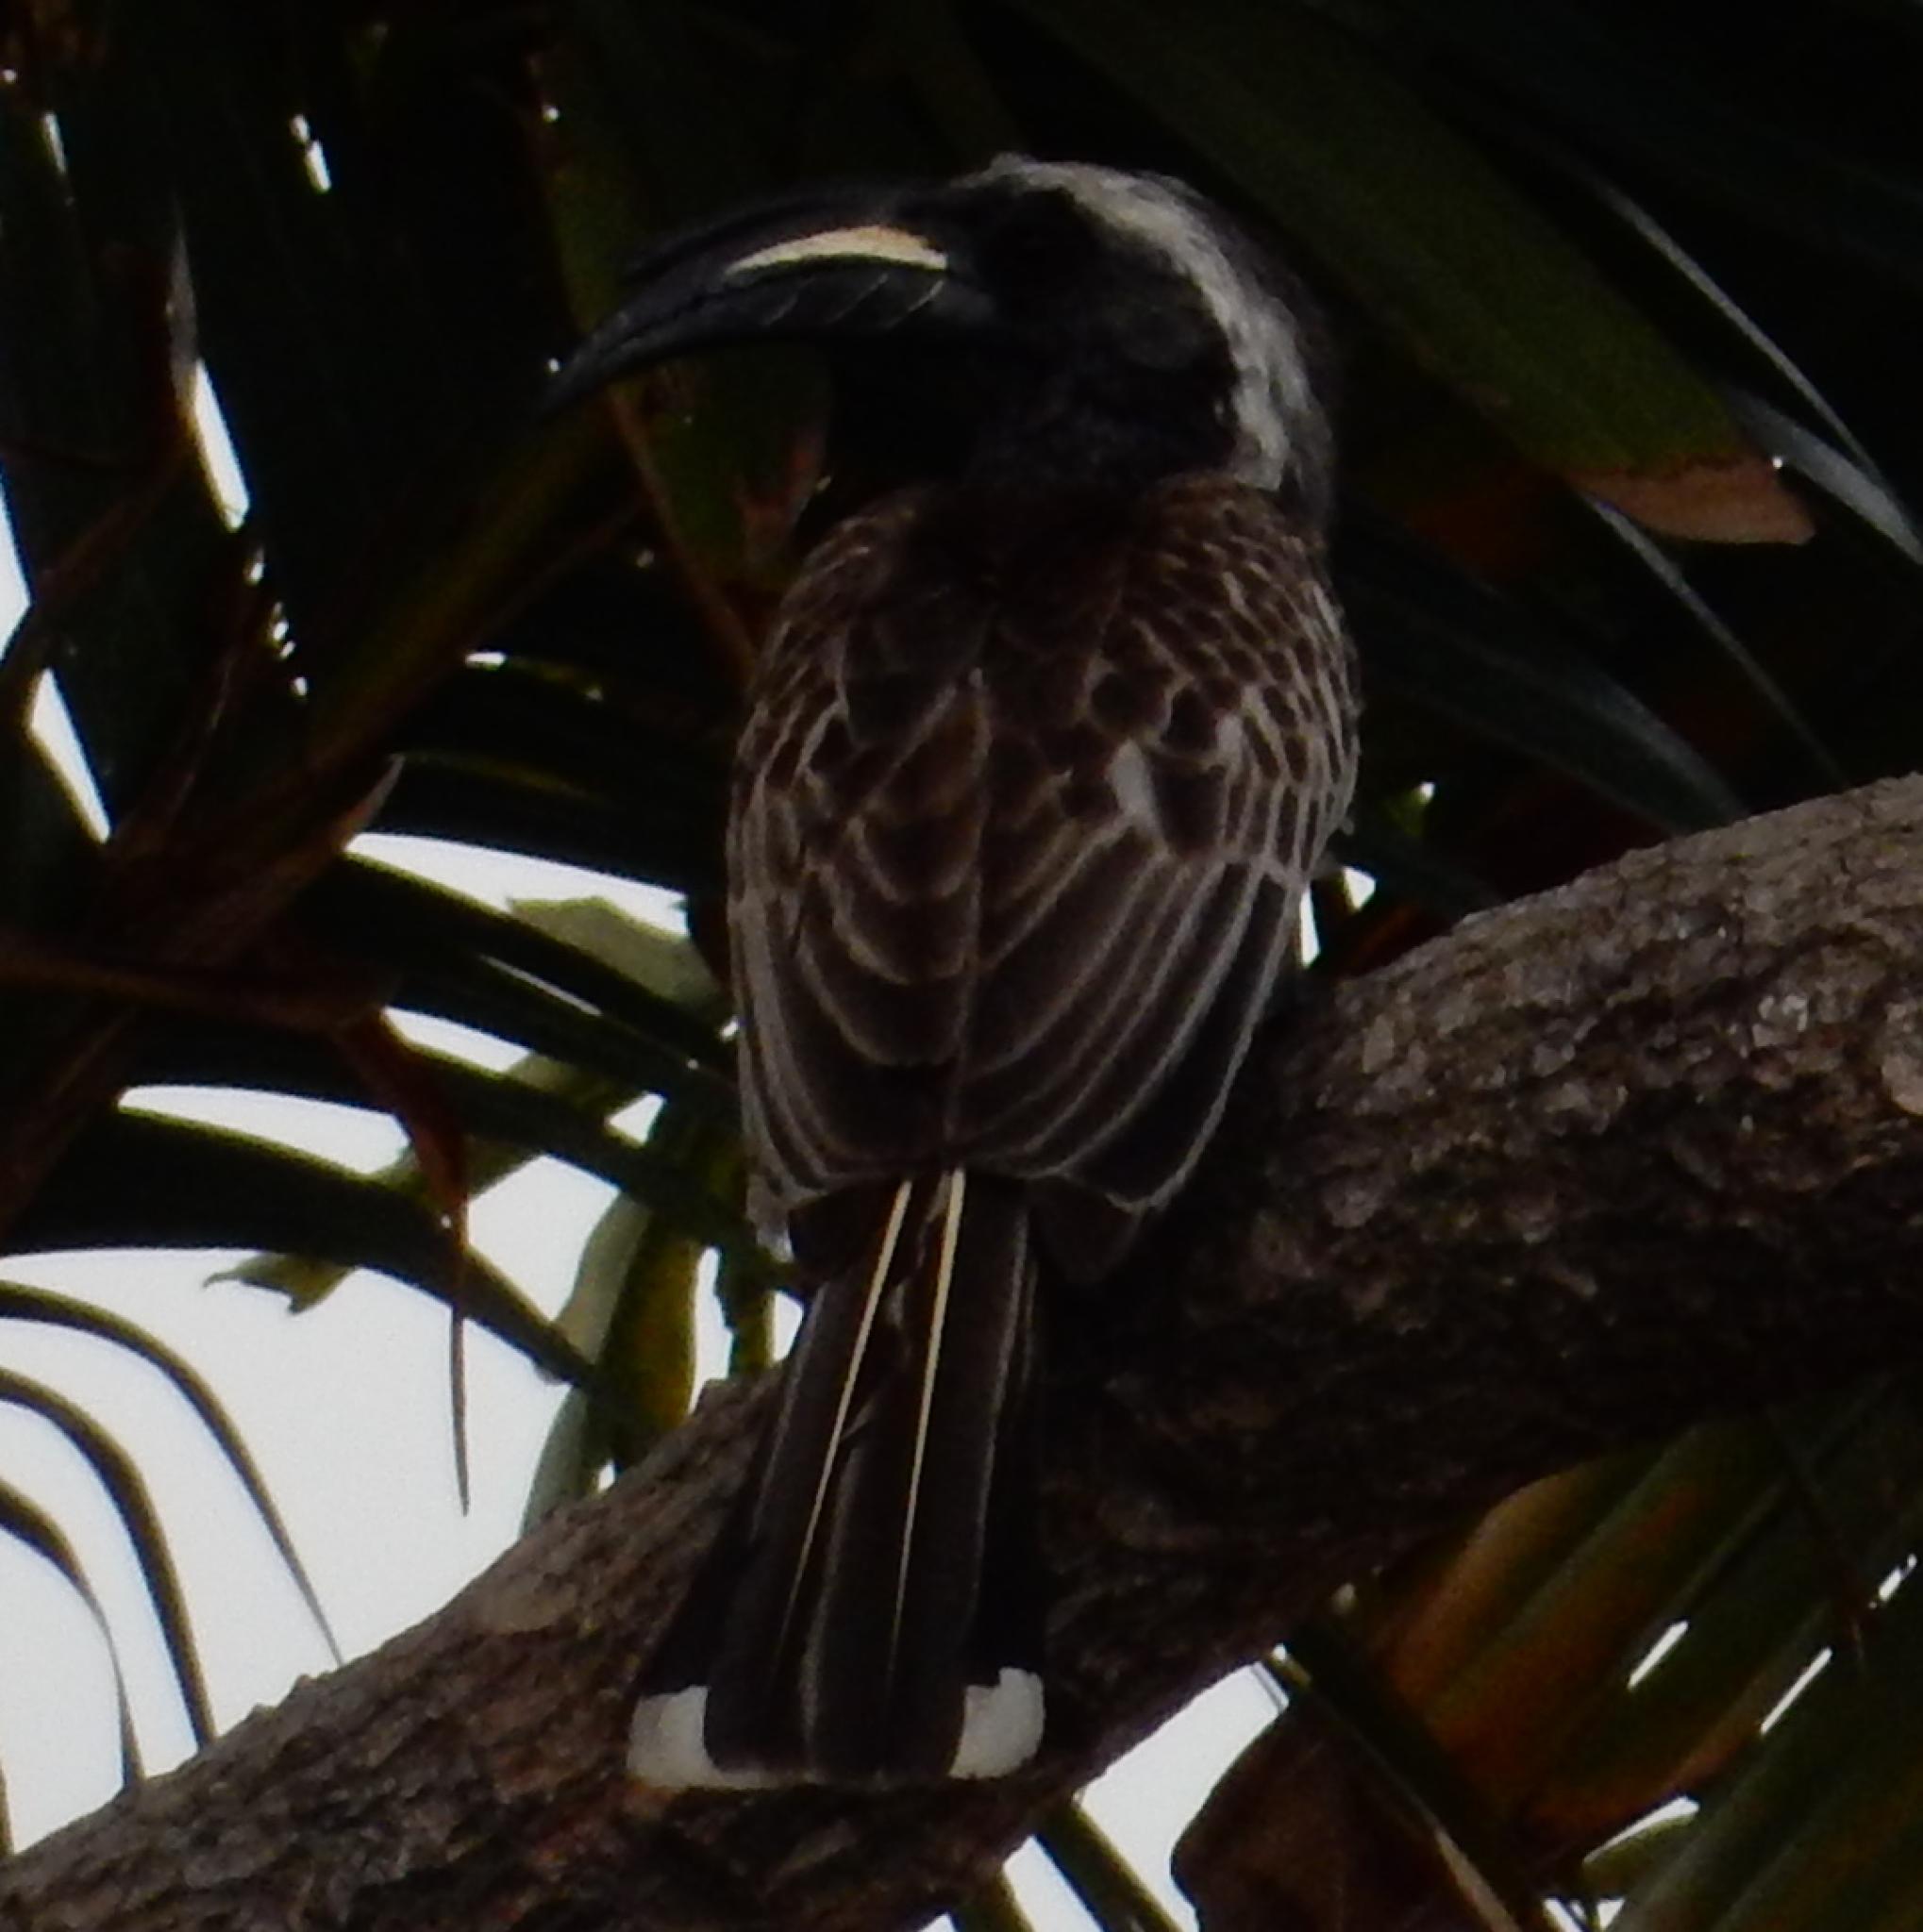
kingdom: Animalia
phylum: Chordata
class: Aves
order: Bucerotiformes
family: Bucerotidae
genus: Lophoceros
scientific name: Lophoceros nasutus
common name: African grey hornbill
